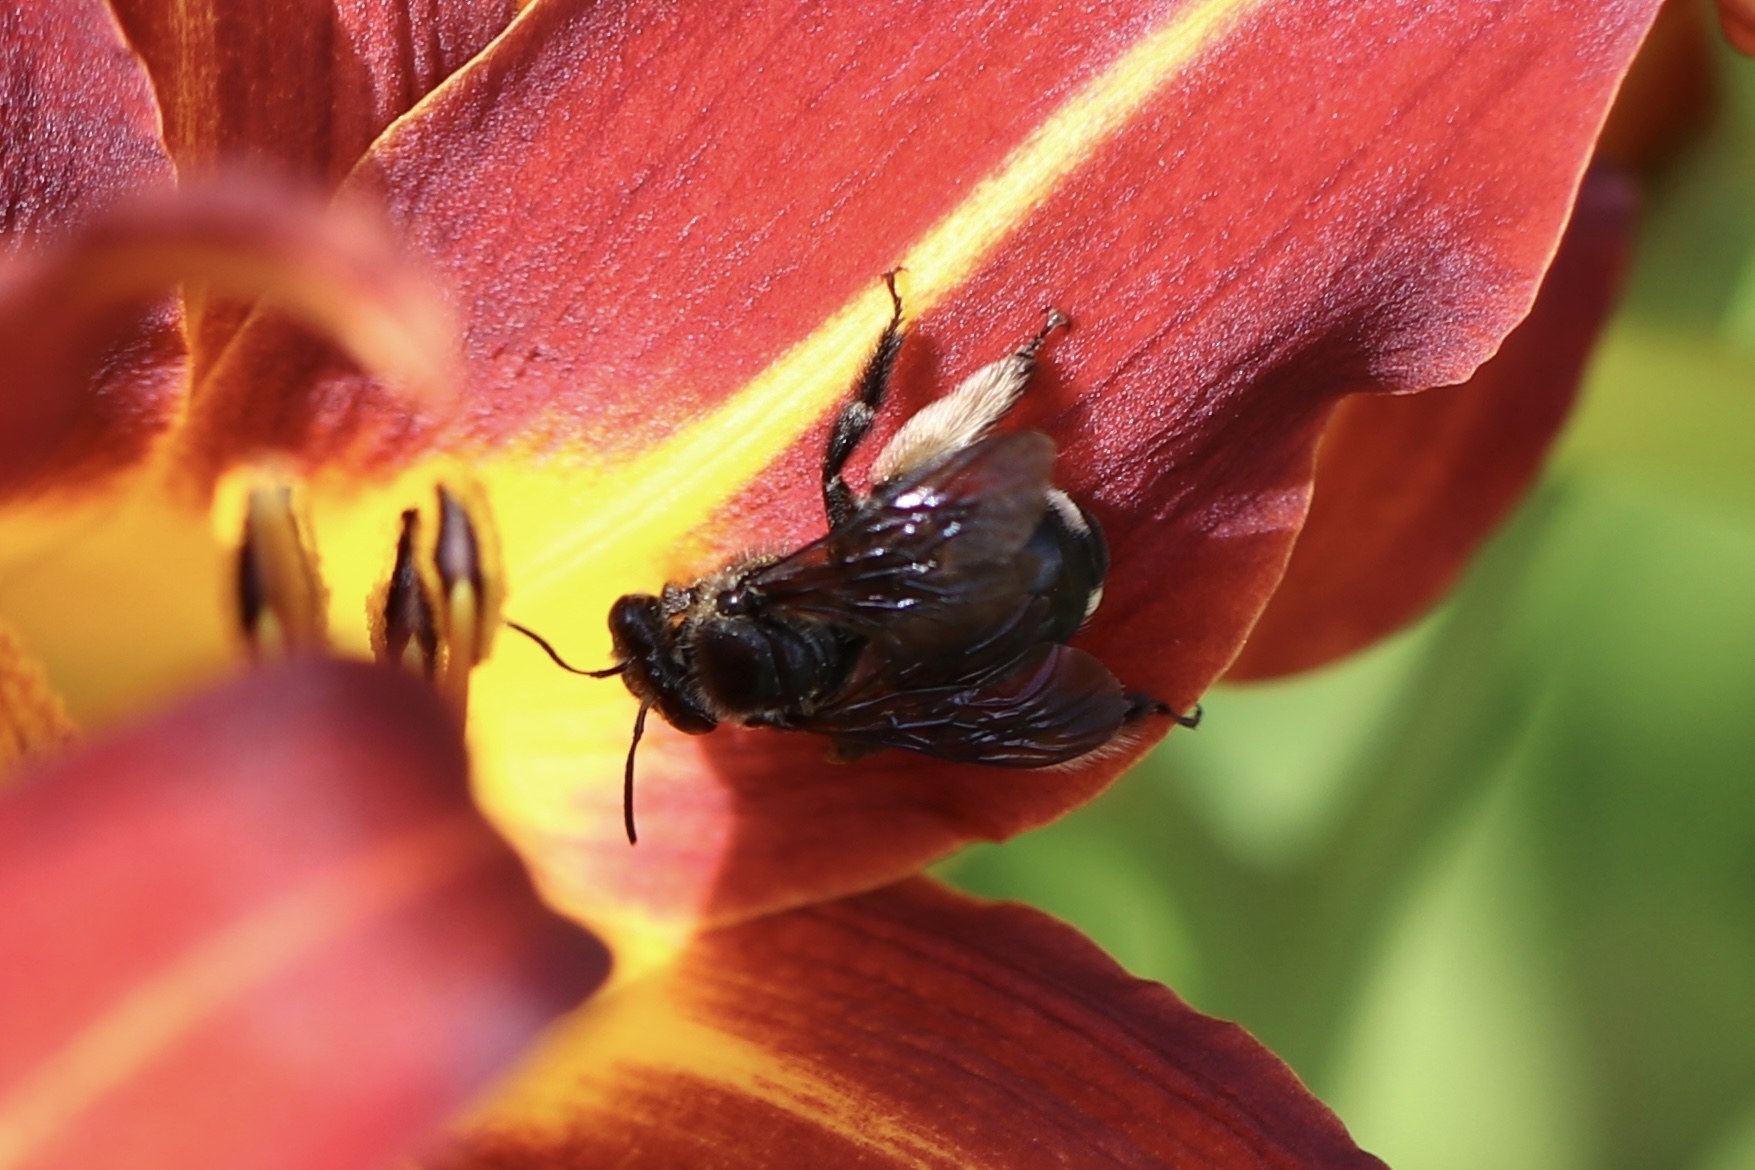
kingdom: Animalia
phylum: Arthropoda
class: Insecta
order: Hymenoptera
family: Apidae
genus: Melissodes
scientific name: Melissodes bimaculatus
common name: Two-spotted long-horned bee
